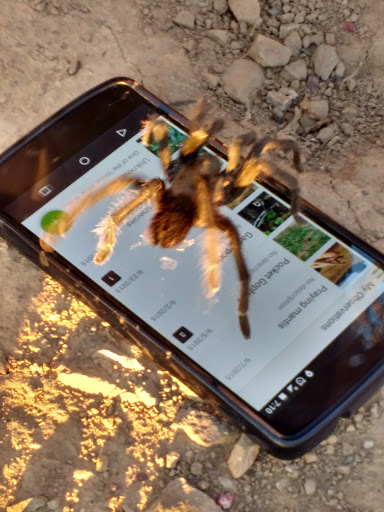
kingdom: Animalia
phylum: Arthropoda
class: Arachnida
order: Araneae
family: Theraphosidae
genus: Aphonopelma
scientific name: Aphonopelma iodius
